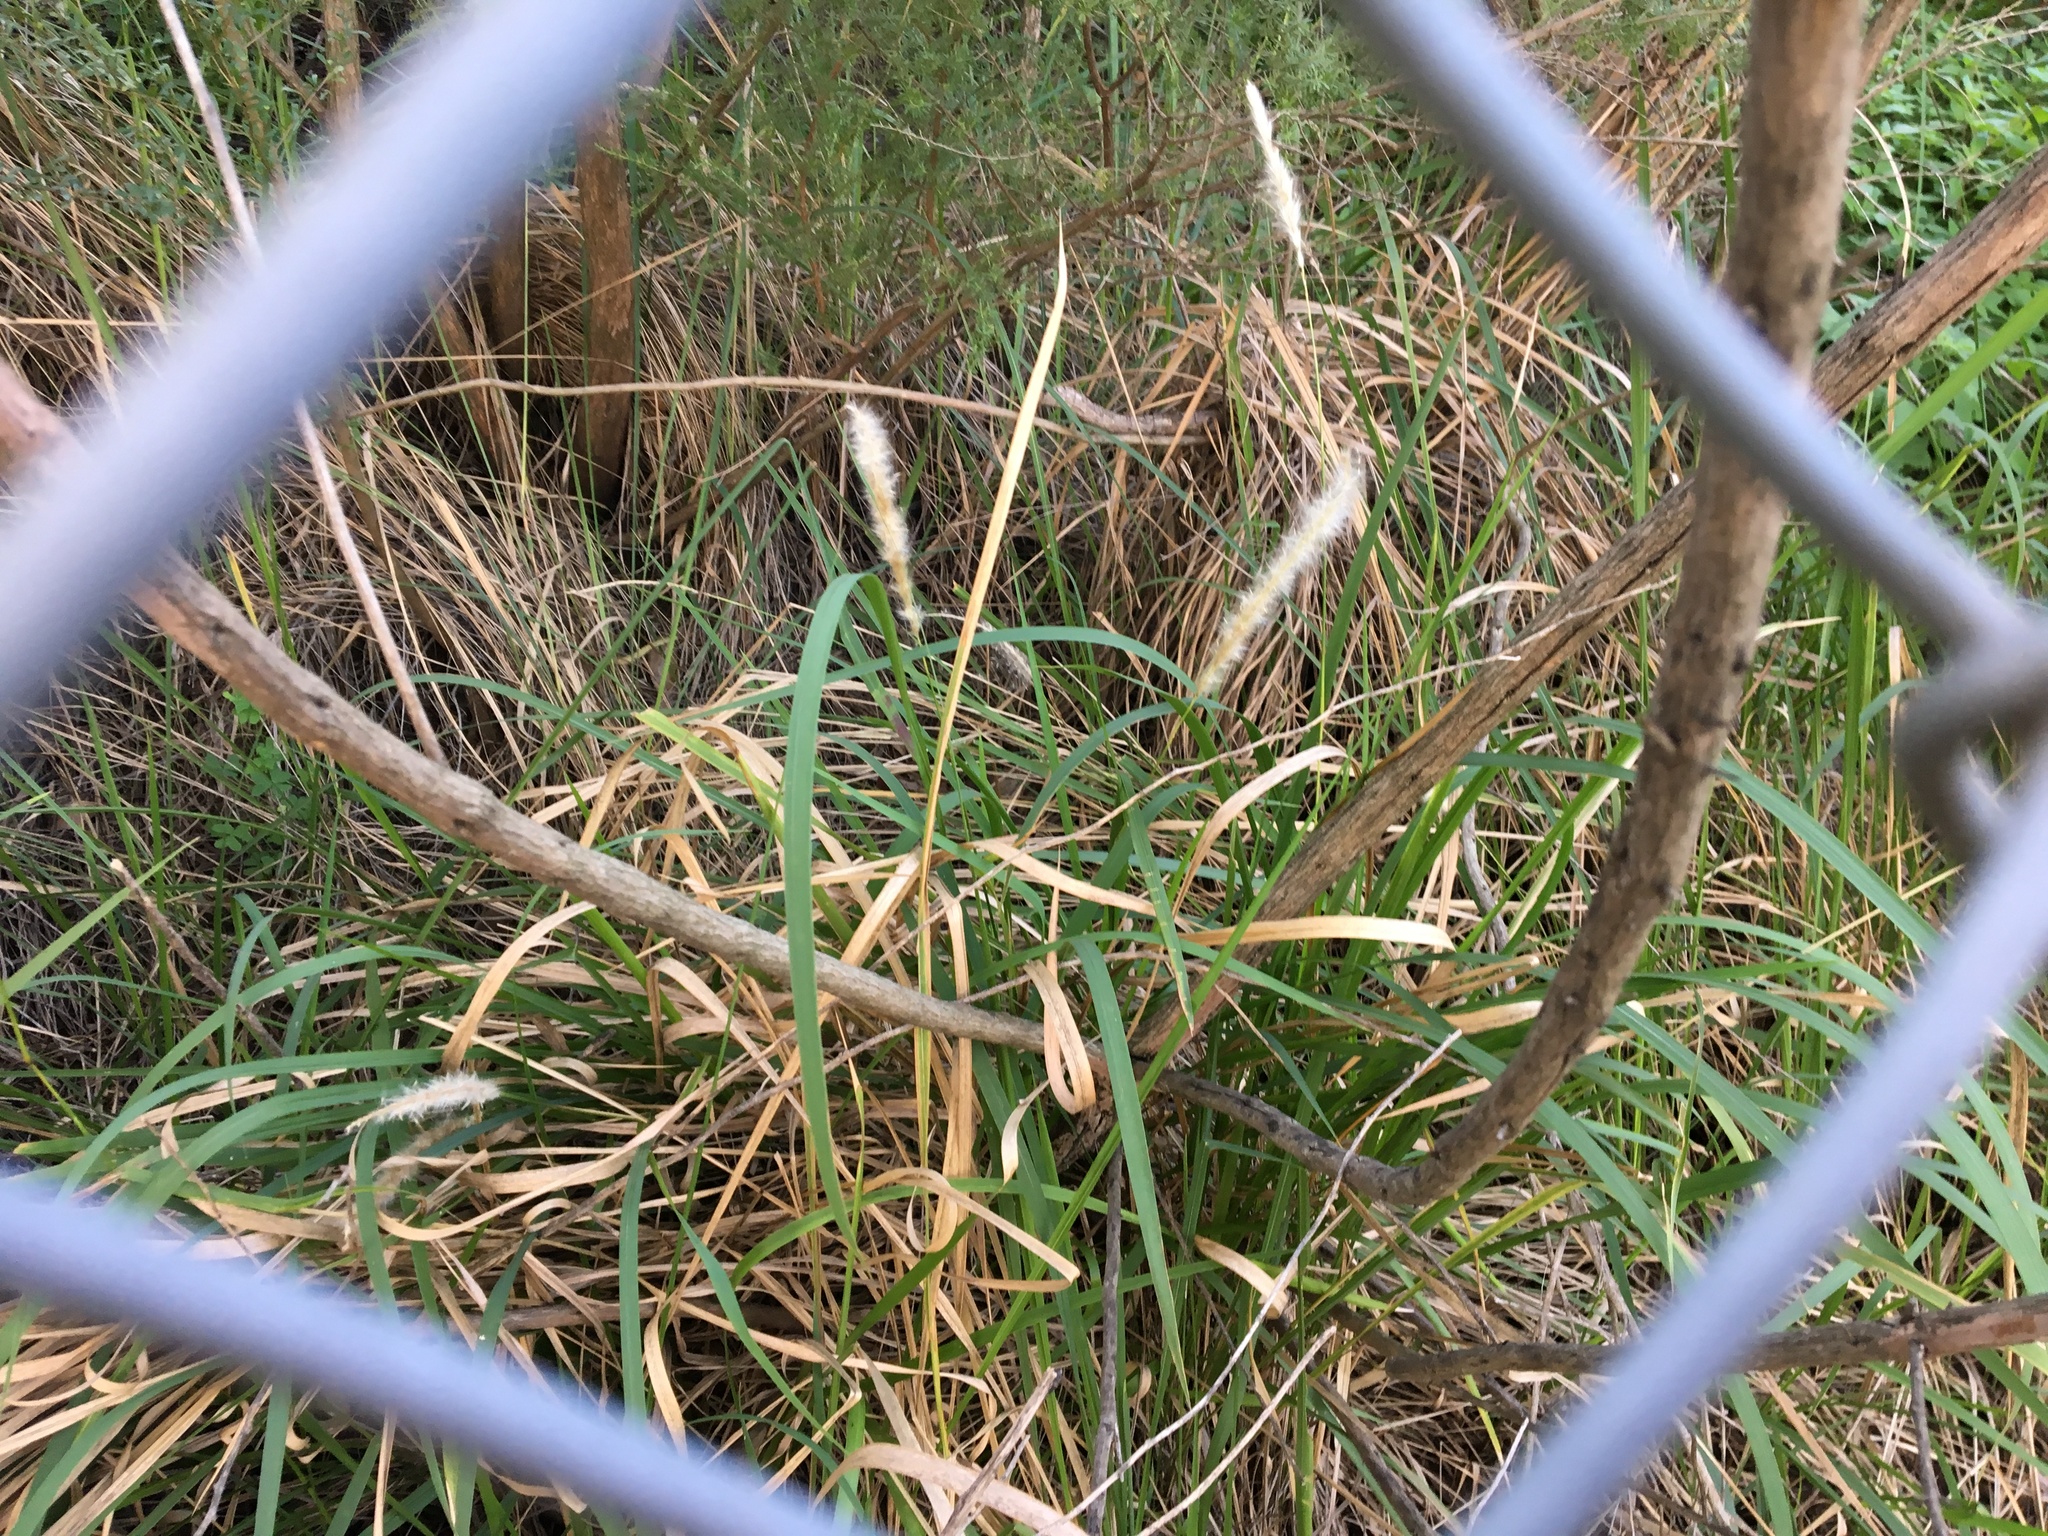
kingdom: Plantae
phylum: Tracheophyta
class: Liliopsida
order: Poales
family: Poaceae
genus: Imperata
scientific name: Imperata cylindrica
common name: Cogongrass
